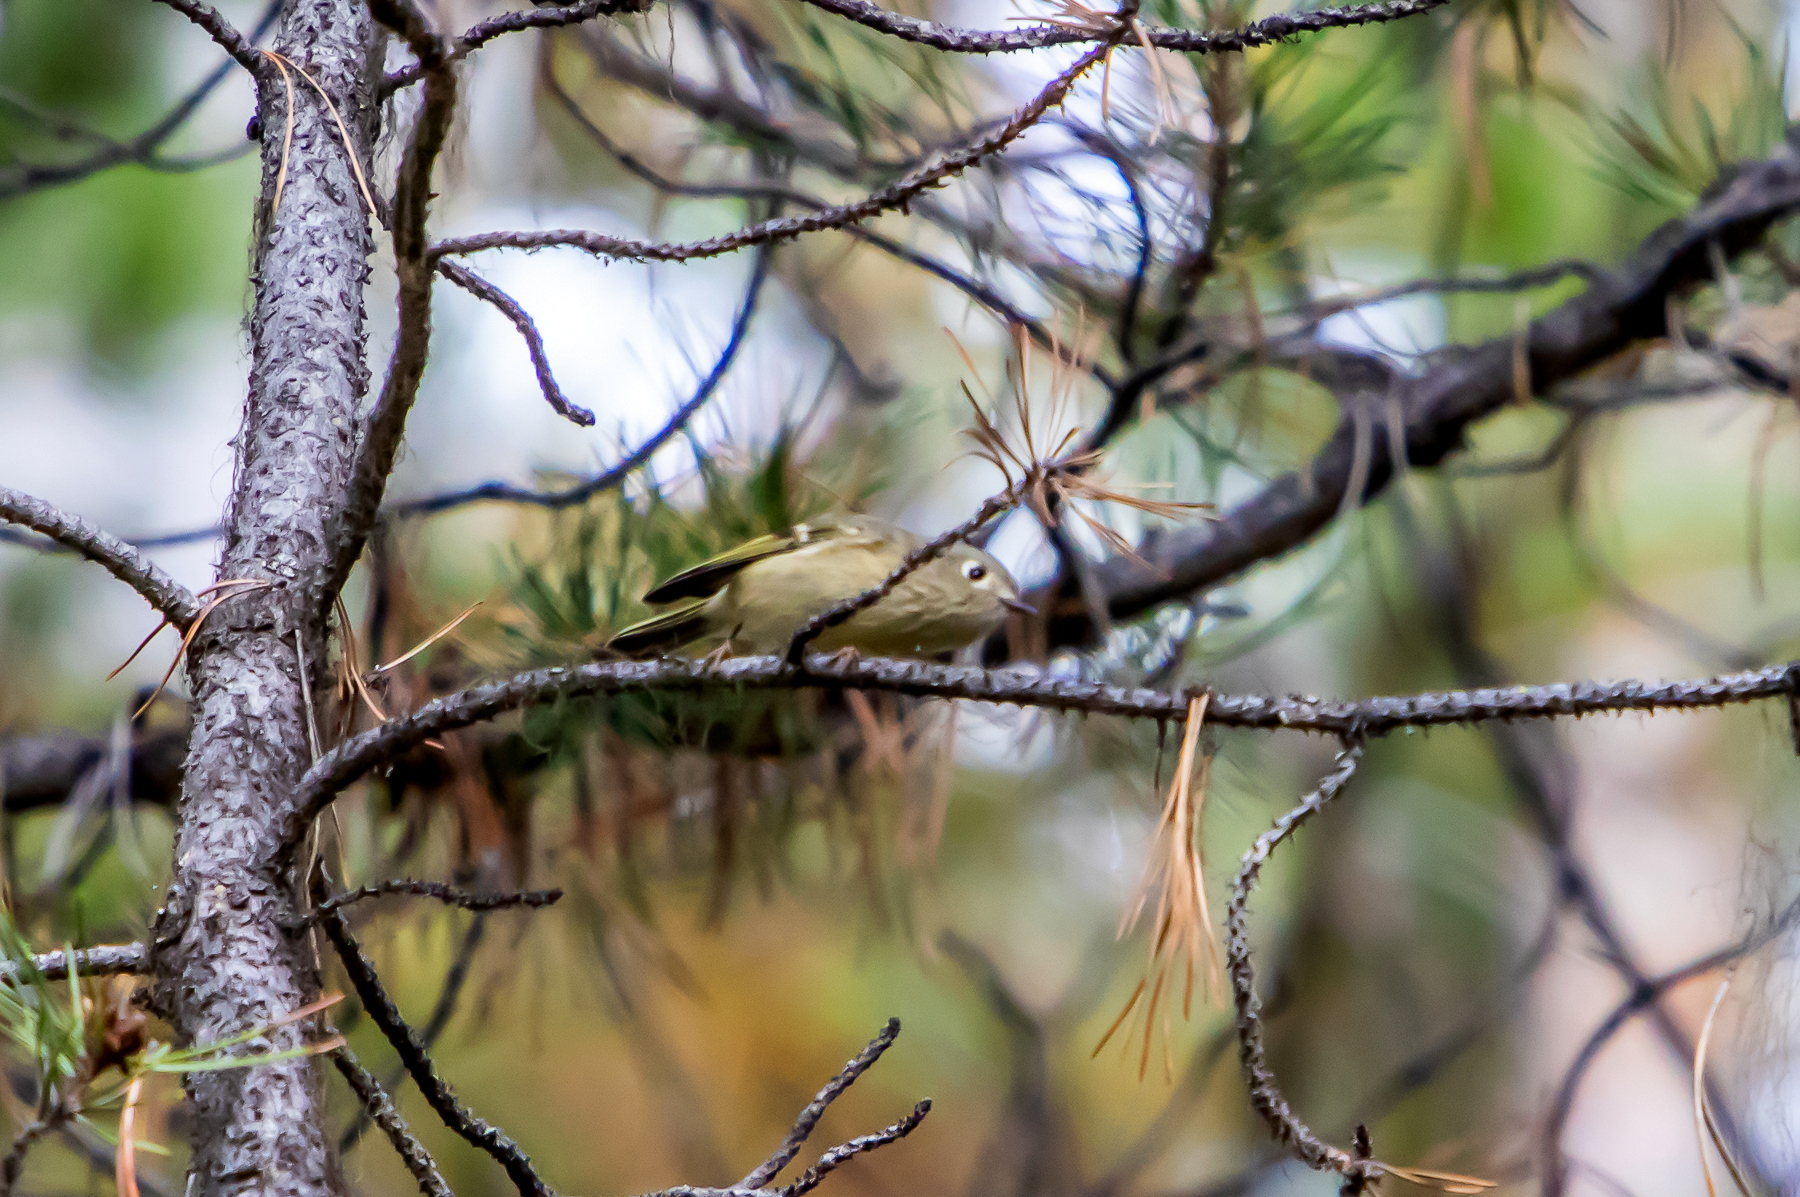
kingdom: Animalia
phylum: Chordata
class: Aves
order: Passeriformes
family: Regulidae
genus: Regulus
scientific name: Regulus calendula
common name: Ruby-crowned kinglet
